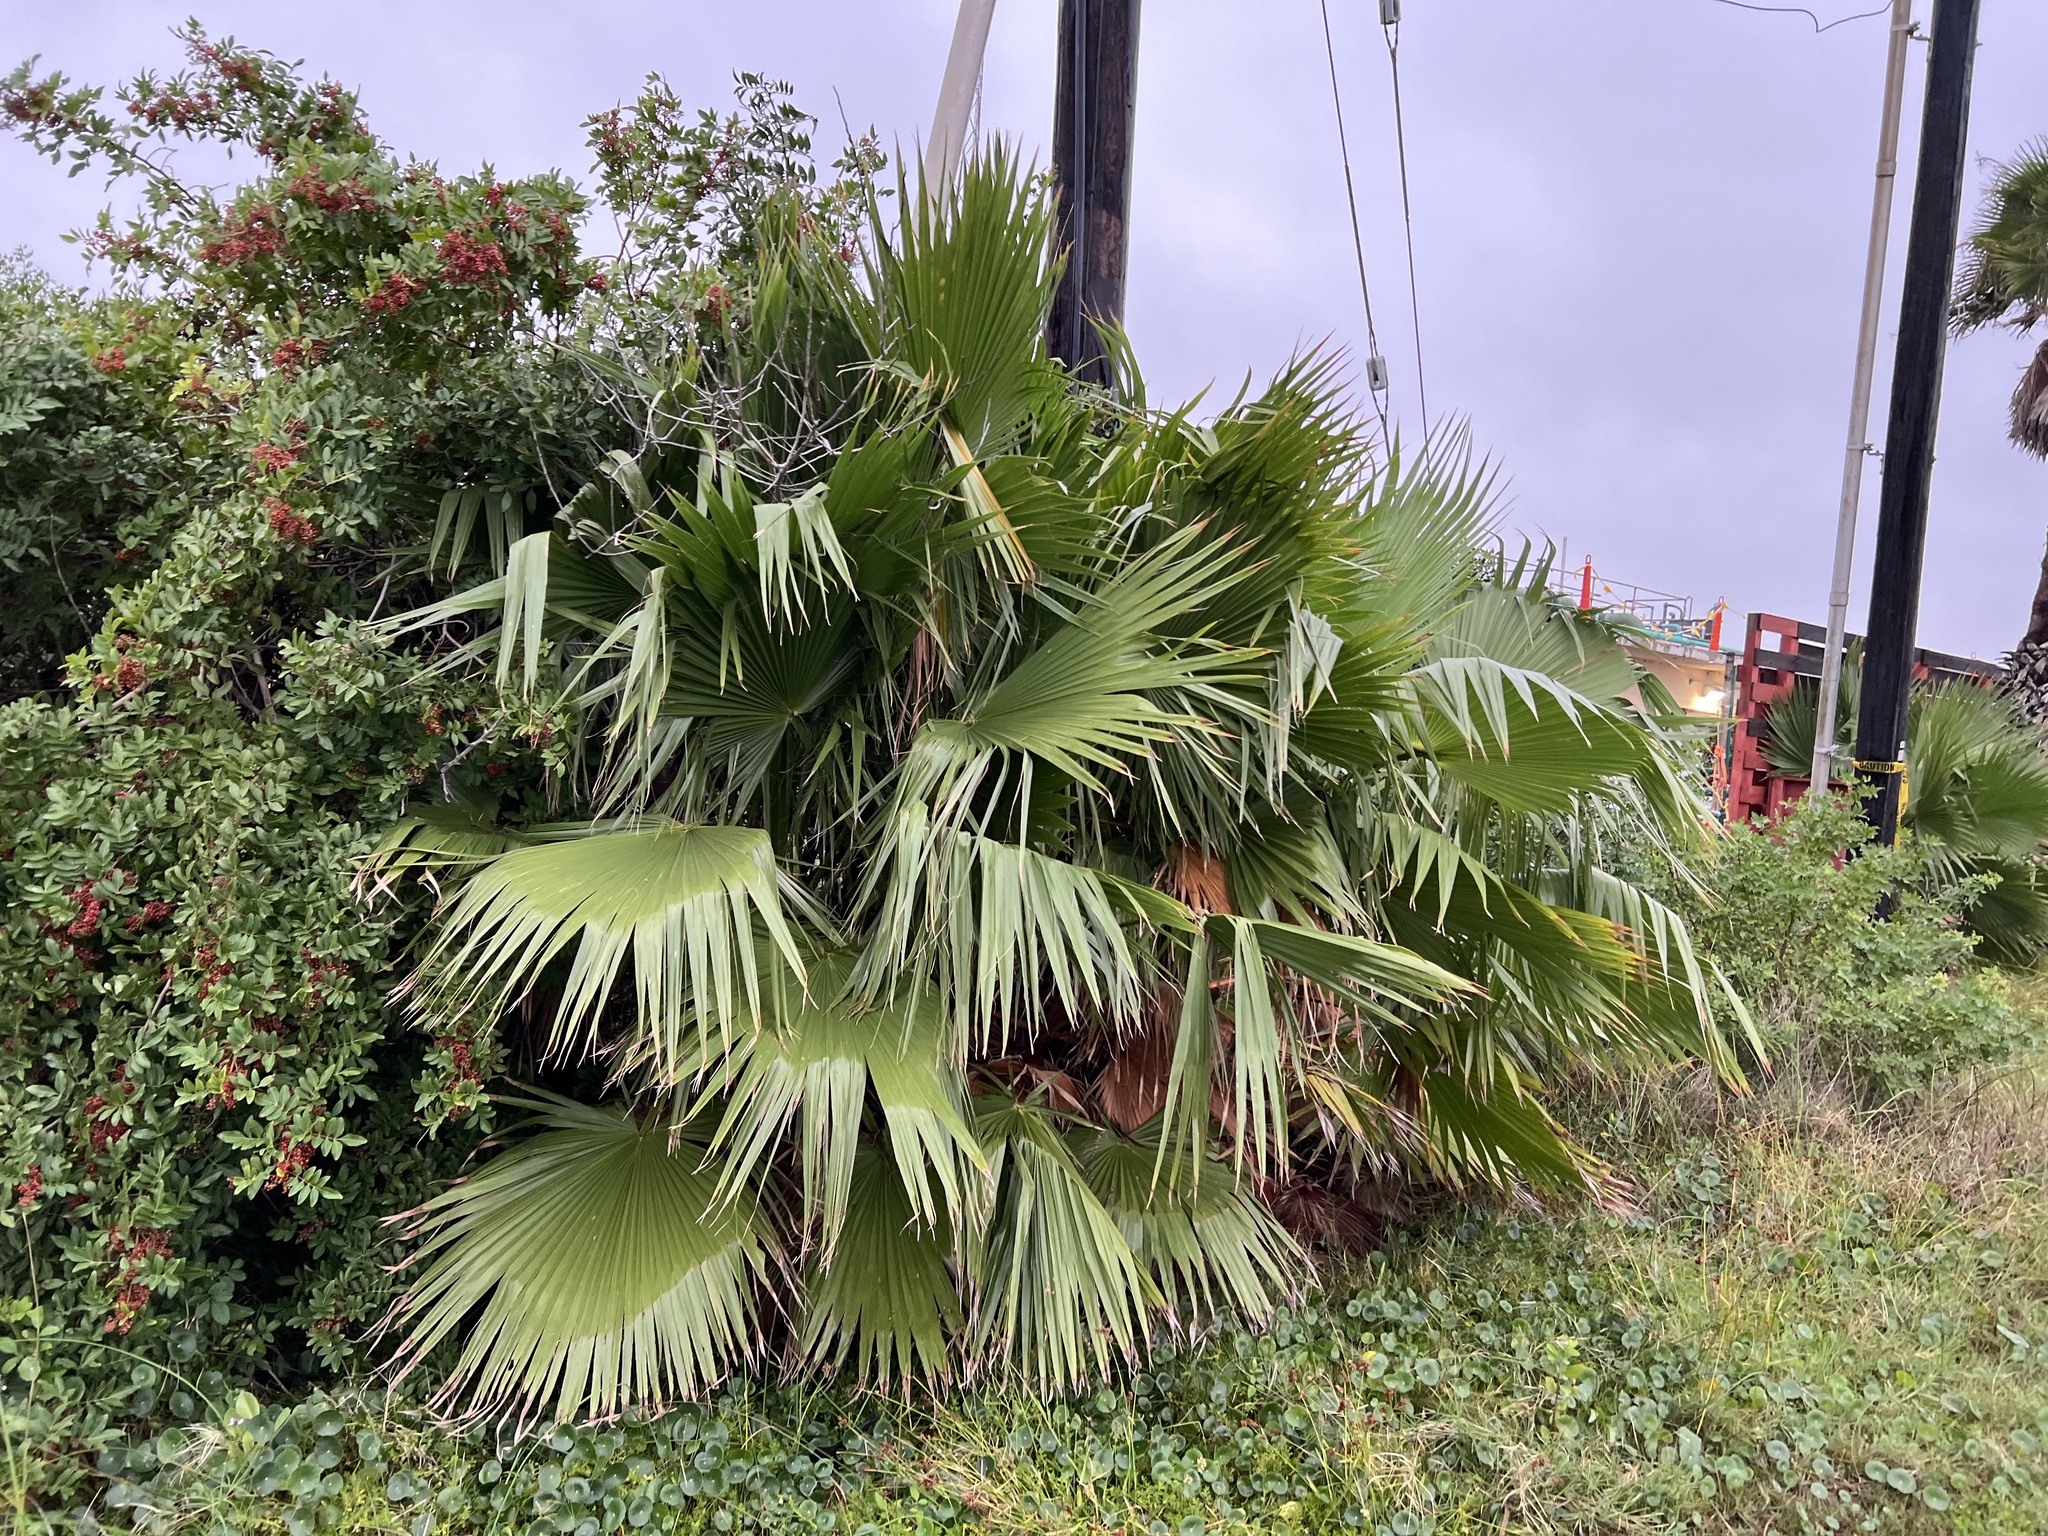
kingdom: Plantae
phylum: Tracheophyta
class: Liliopsida
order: Arecales
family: Arecaceae
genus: Washingtonia
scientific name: Washingtonia robusta
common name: Mexican fan palm
